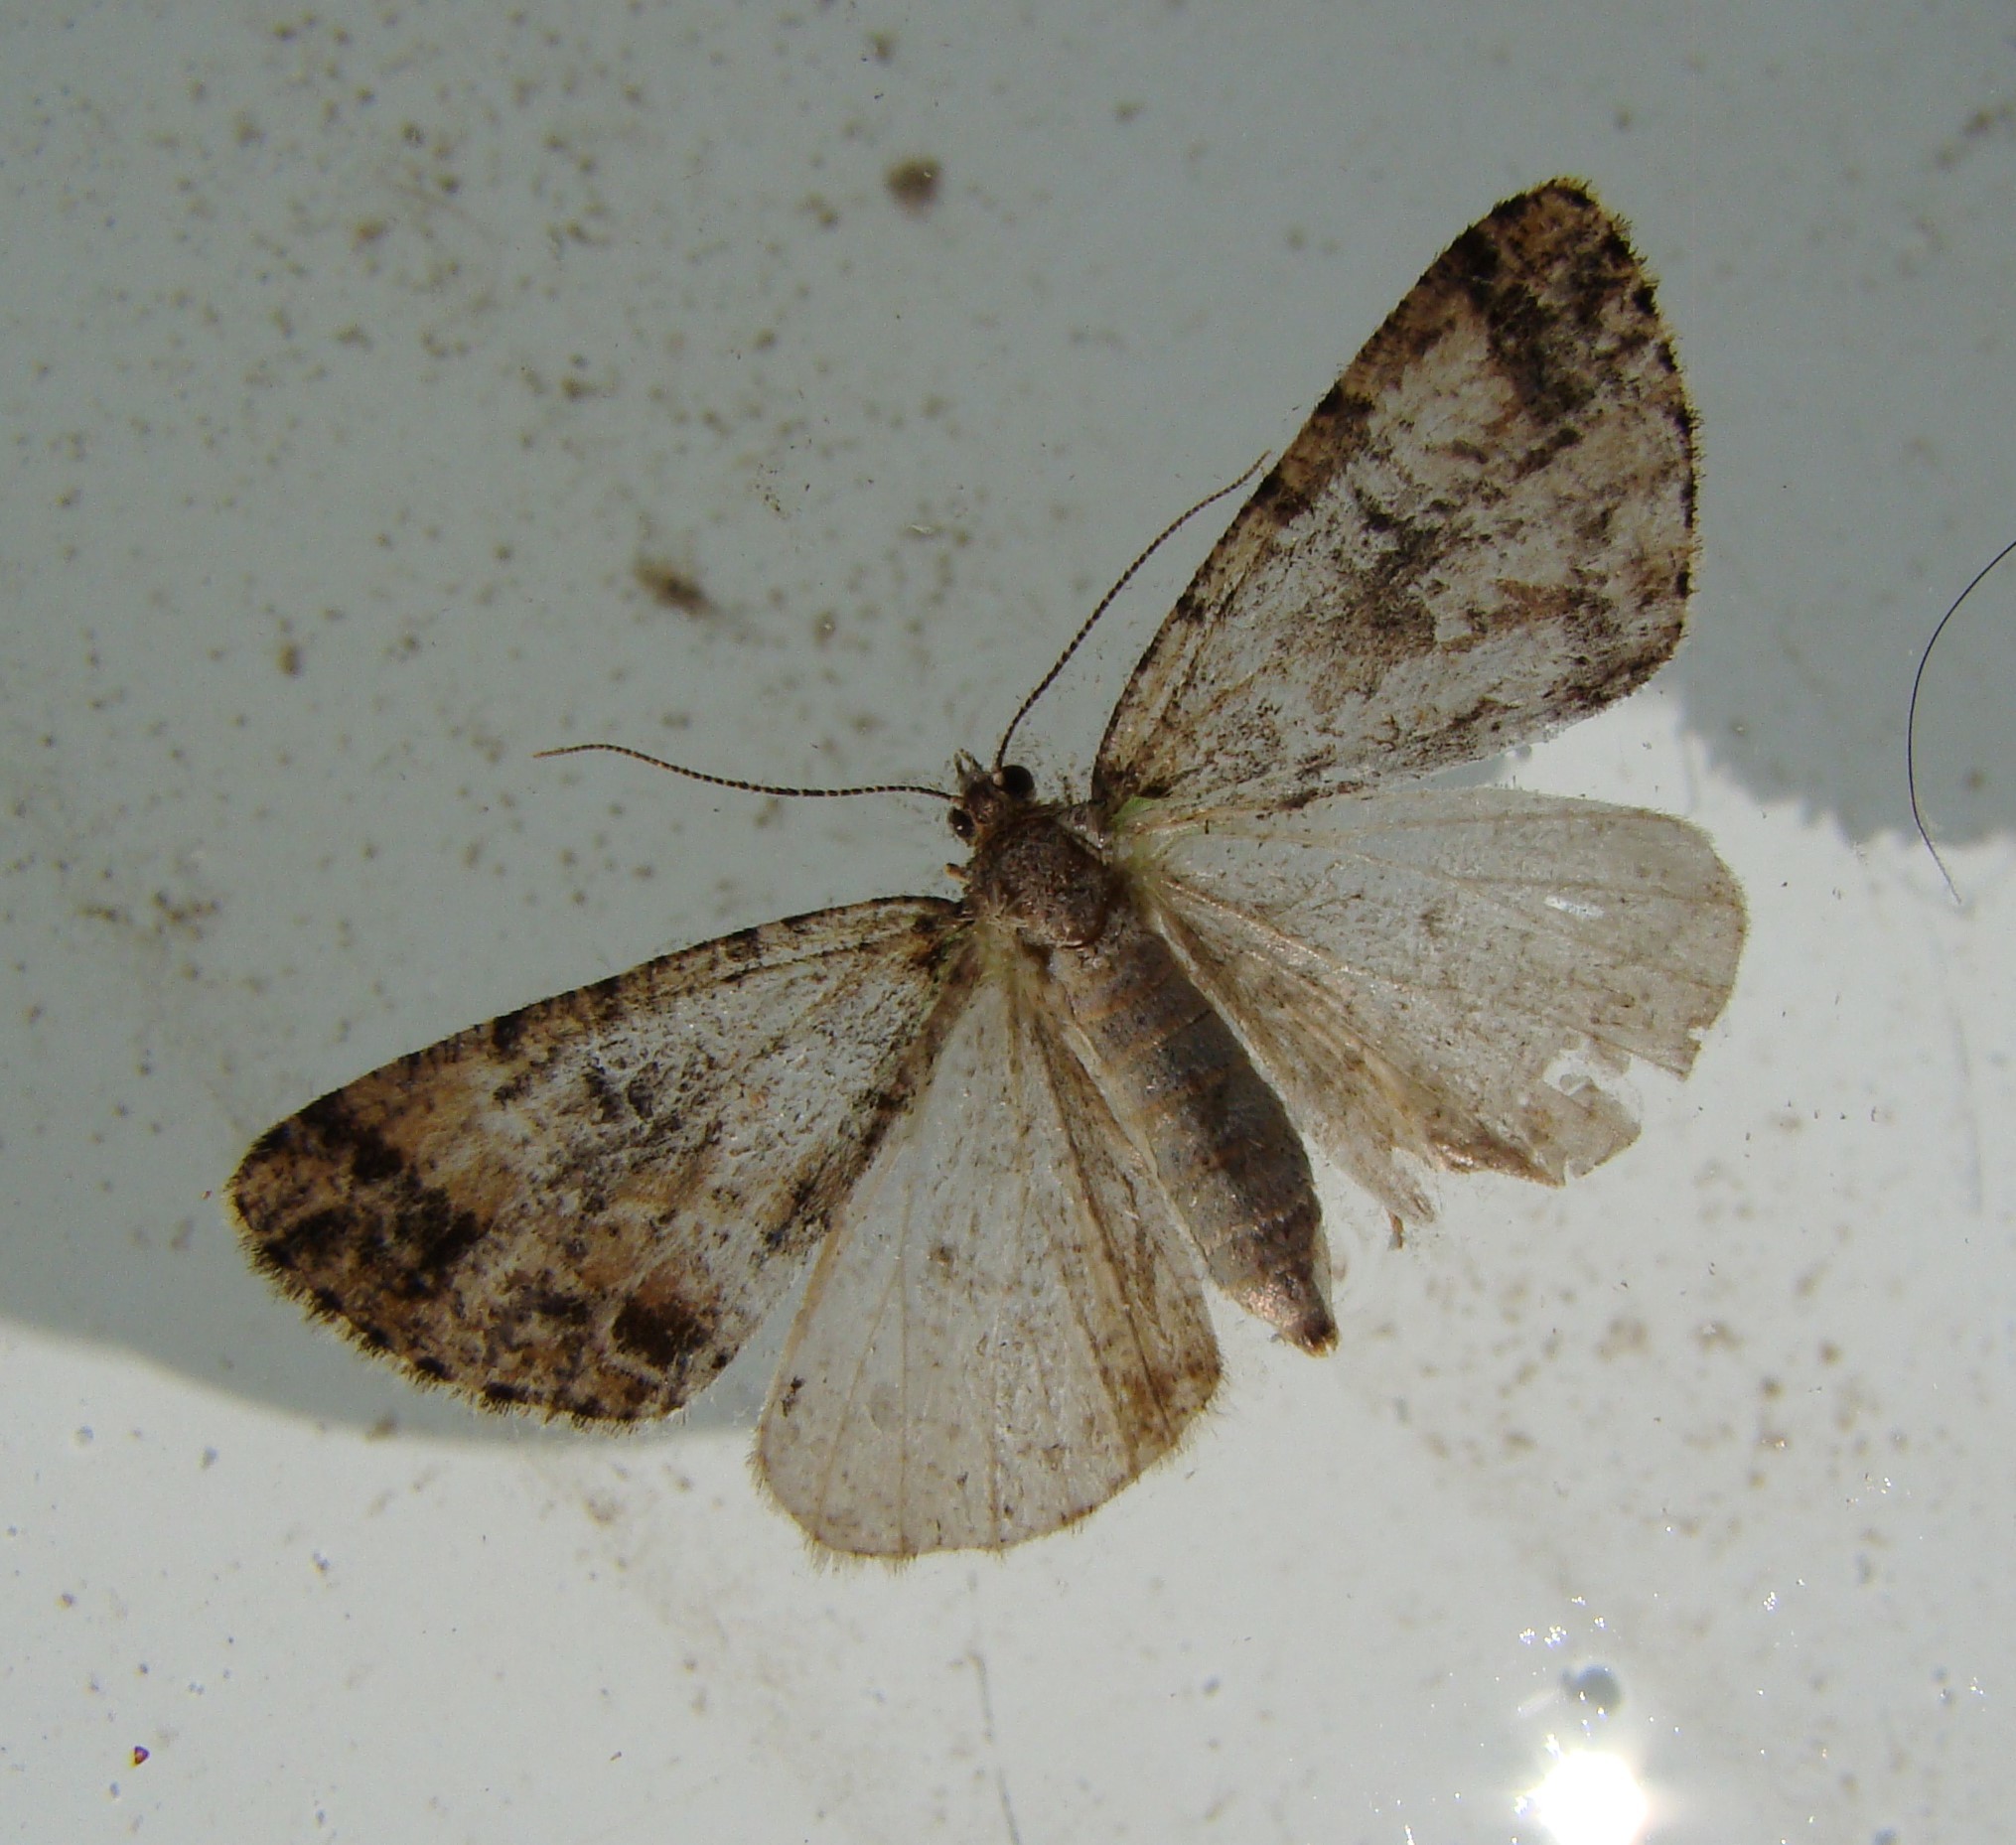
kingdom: Animalia
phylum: Arthropoda
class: Insecta
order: Lepidoptera
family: Geometridae
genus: Pseudocoremia
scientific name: Pseudocoremia productata
